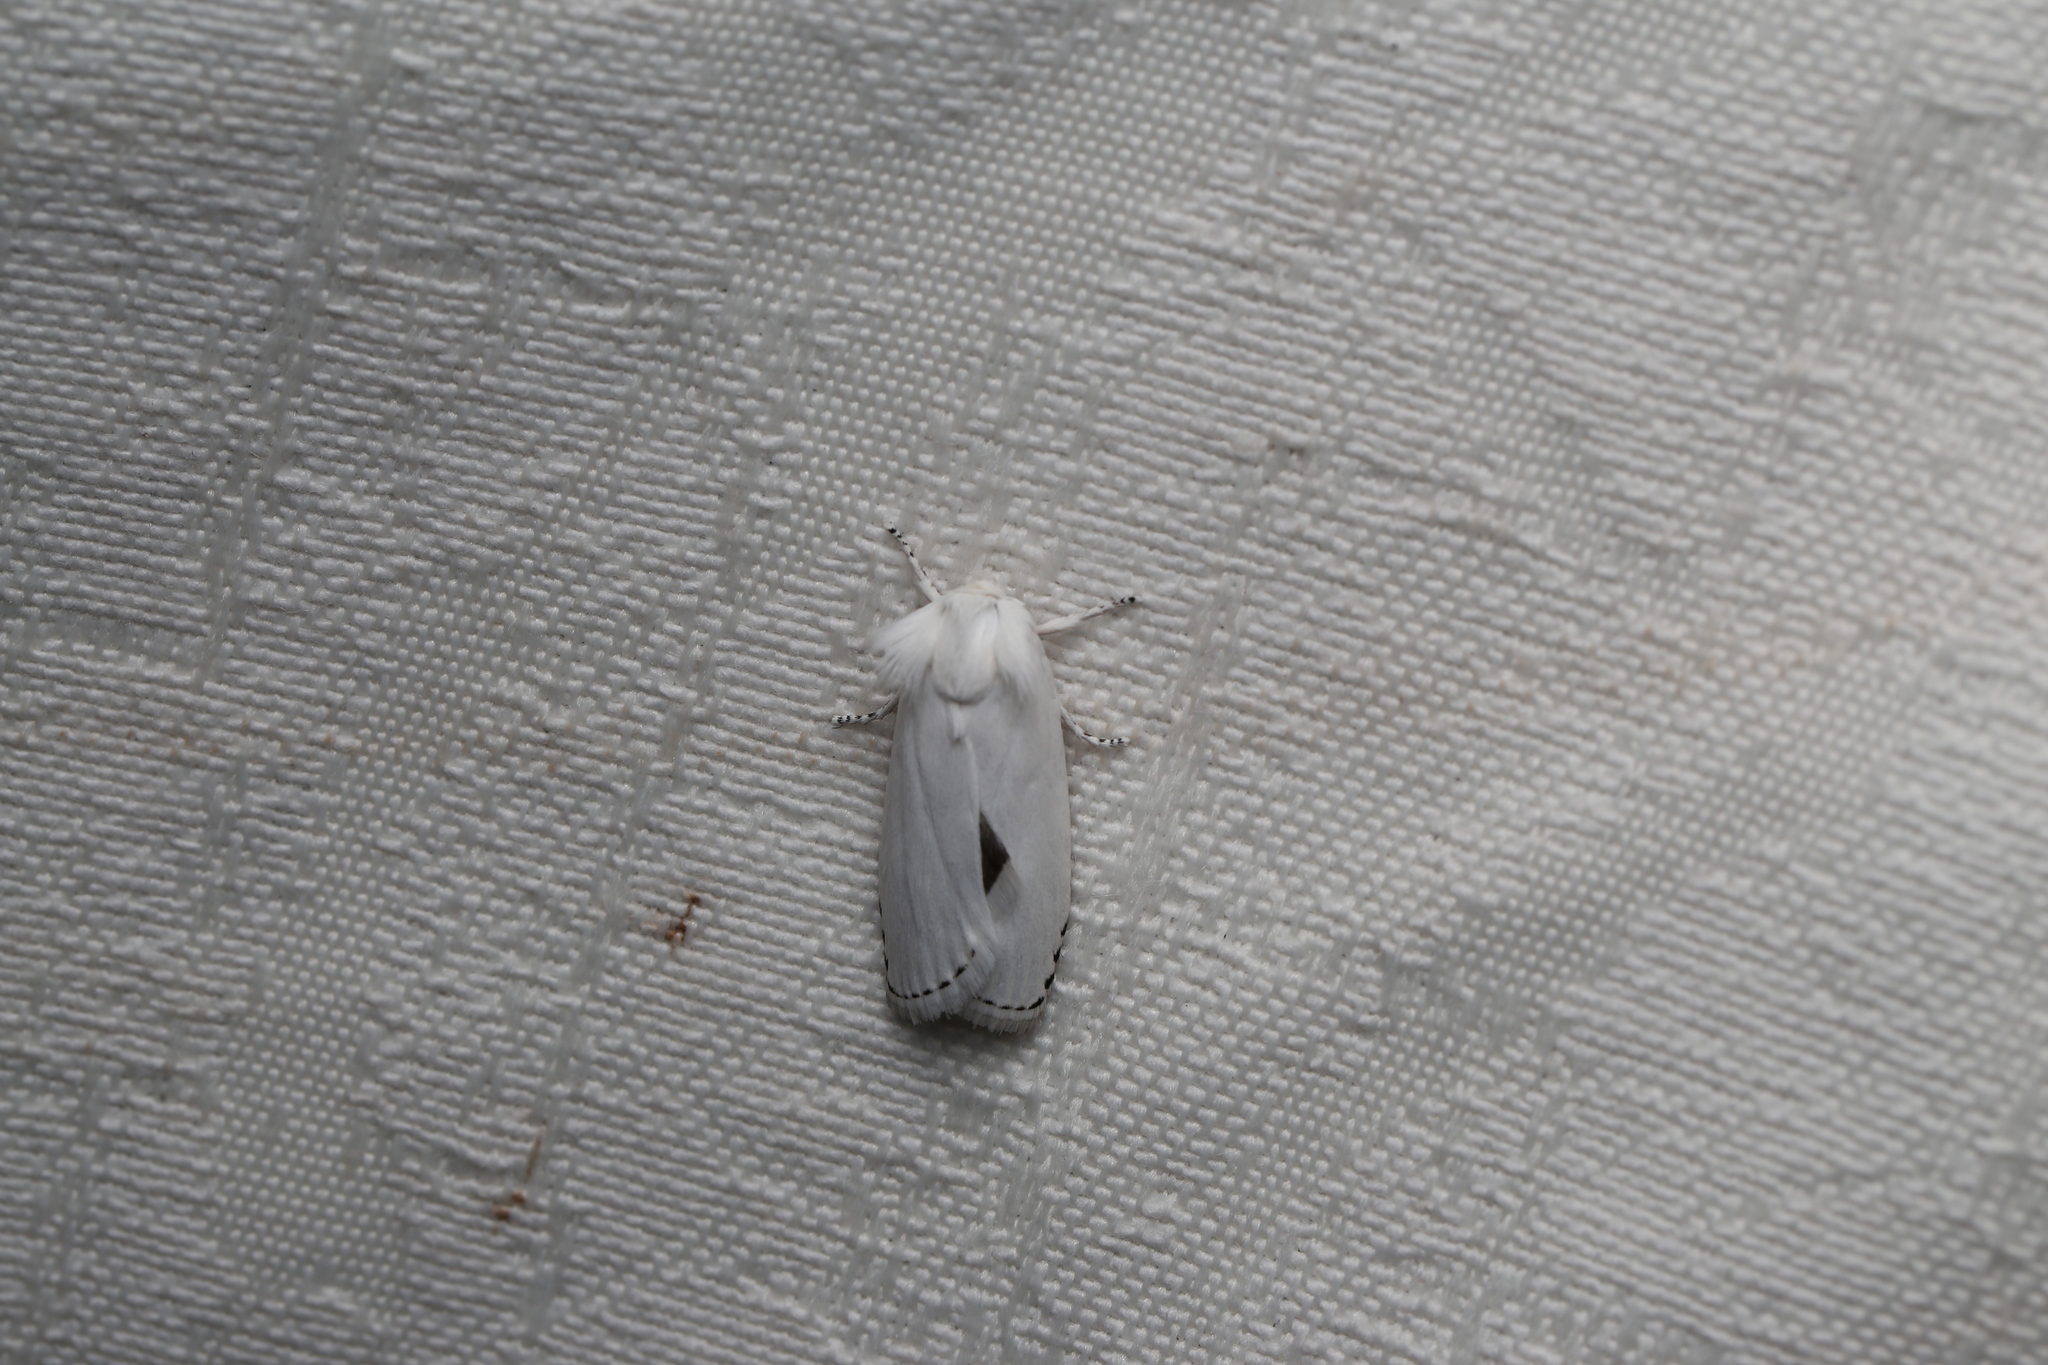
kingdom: Animalia
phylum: Arthropoda
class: Insecta
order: Lepidoptera
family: Xyloryctidae
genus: Cryptophasa
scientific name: Cryptophasa epadelpha
